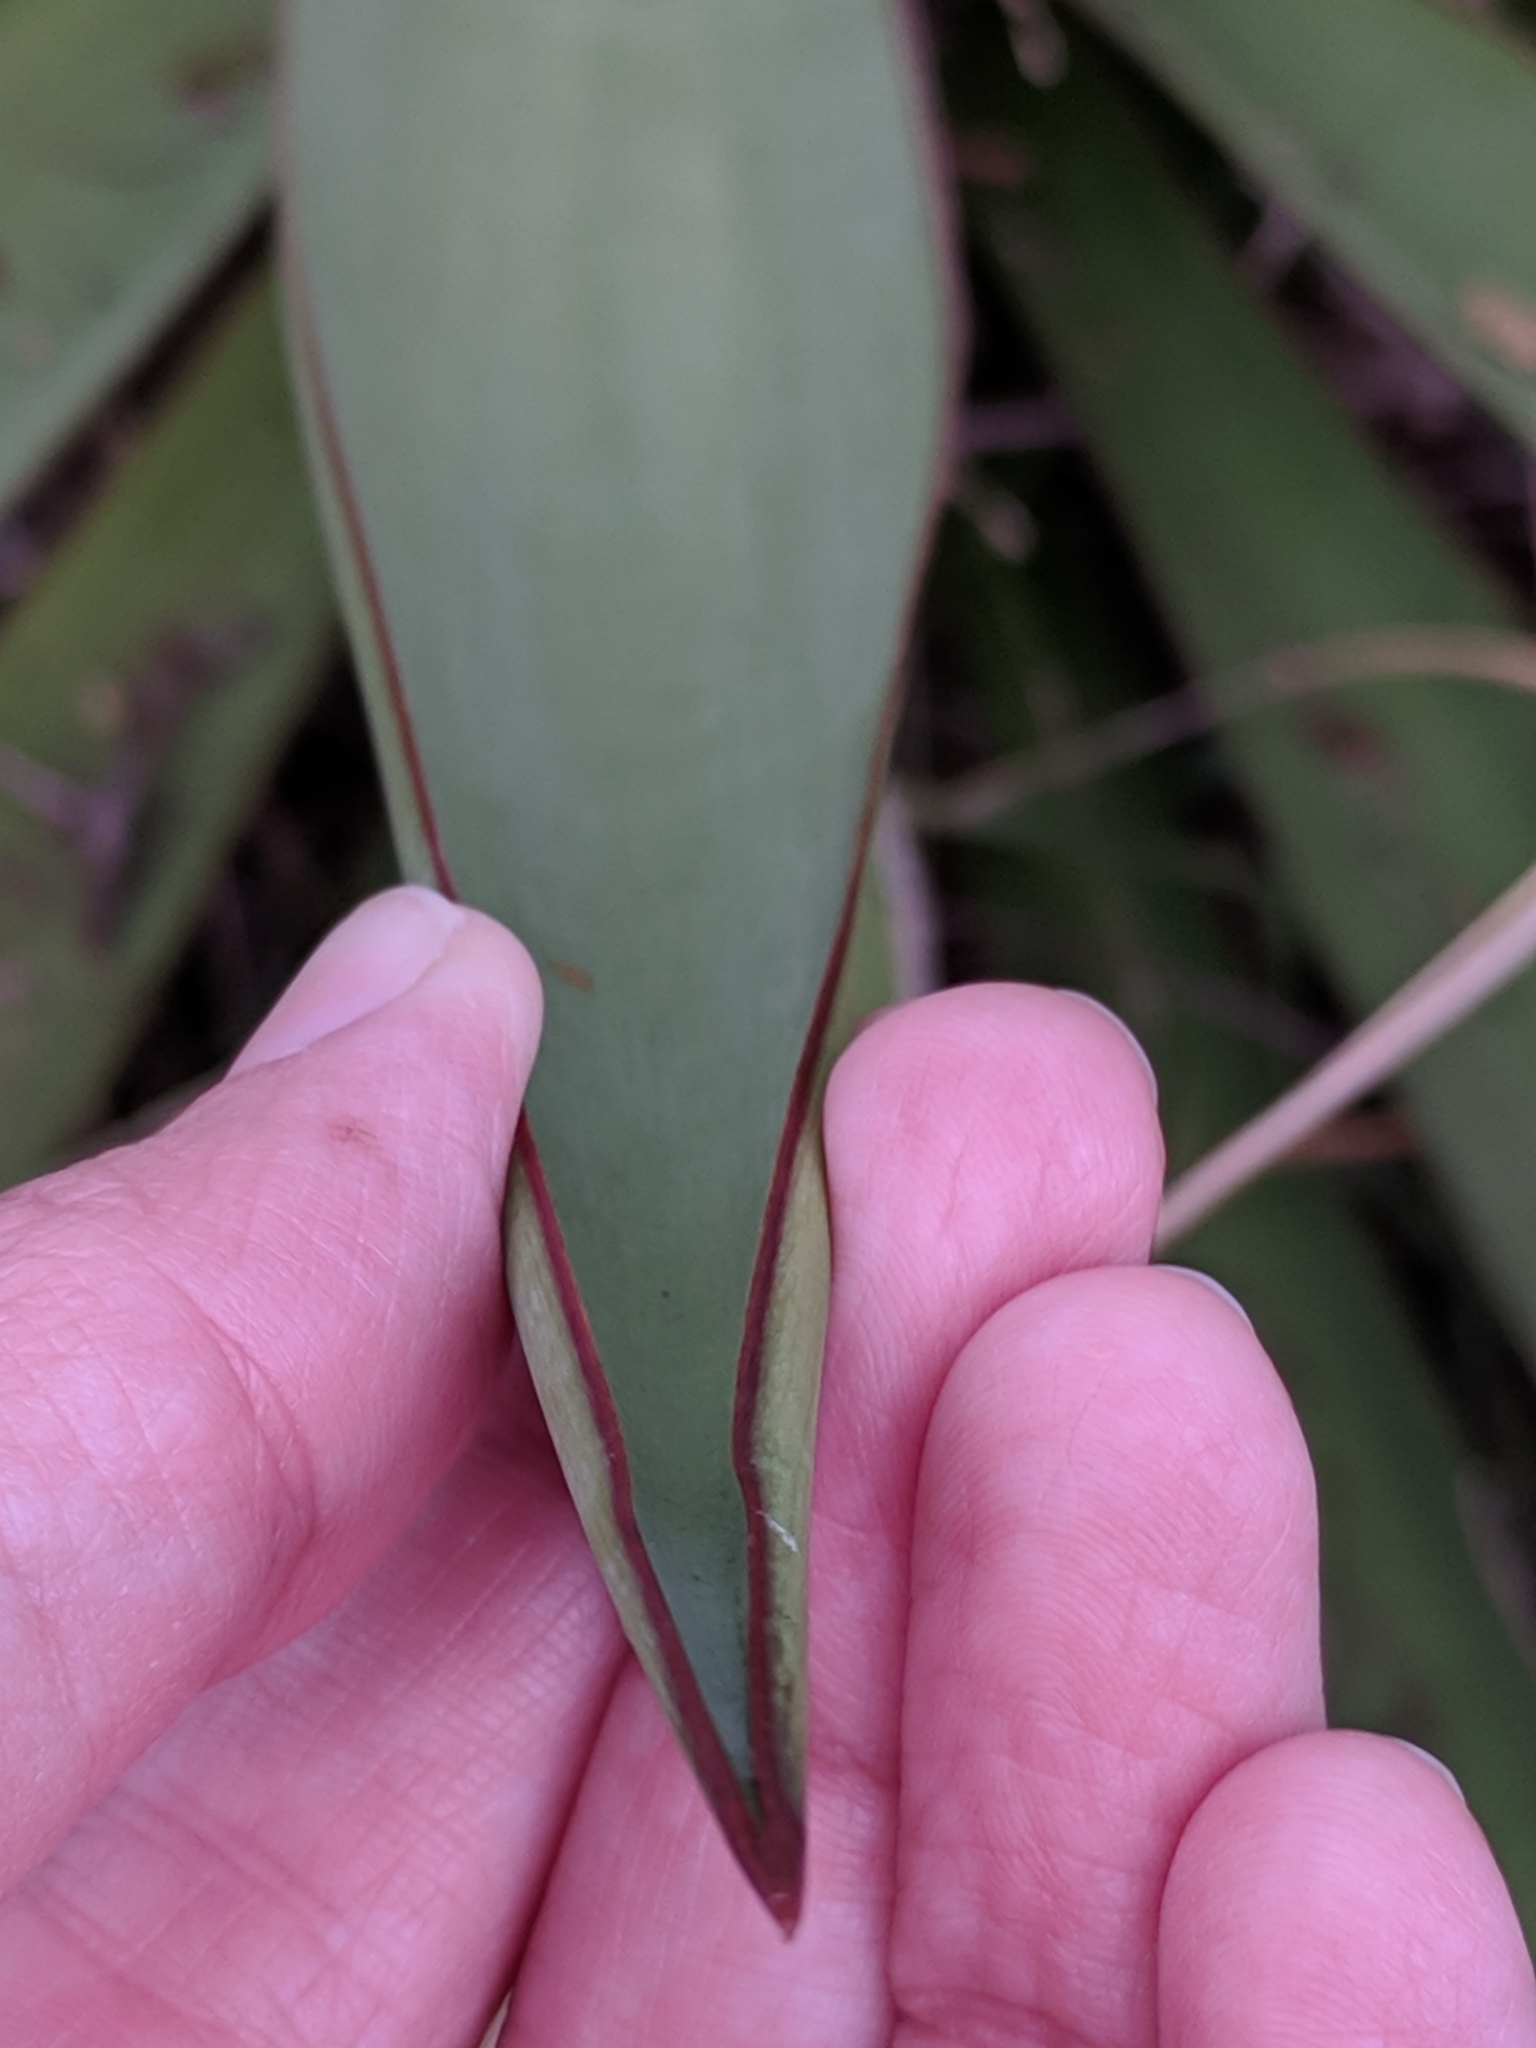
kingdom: Plantae
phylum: Tracheophyta
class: Liliopsida
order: Asparagales
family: Asparagaceae
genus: Yucca
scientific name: Yucca treculiana
